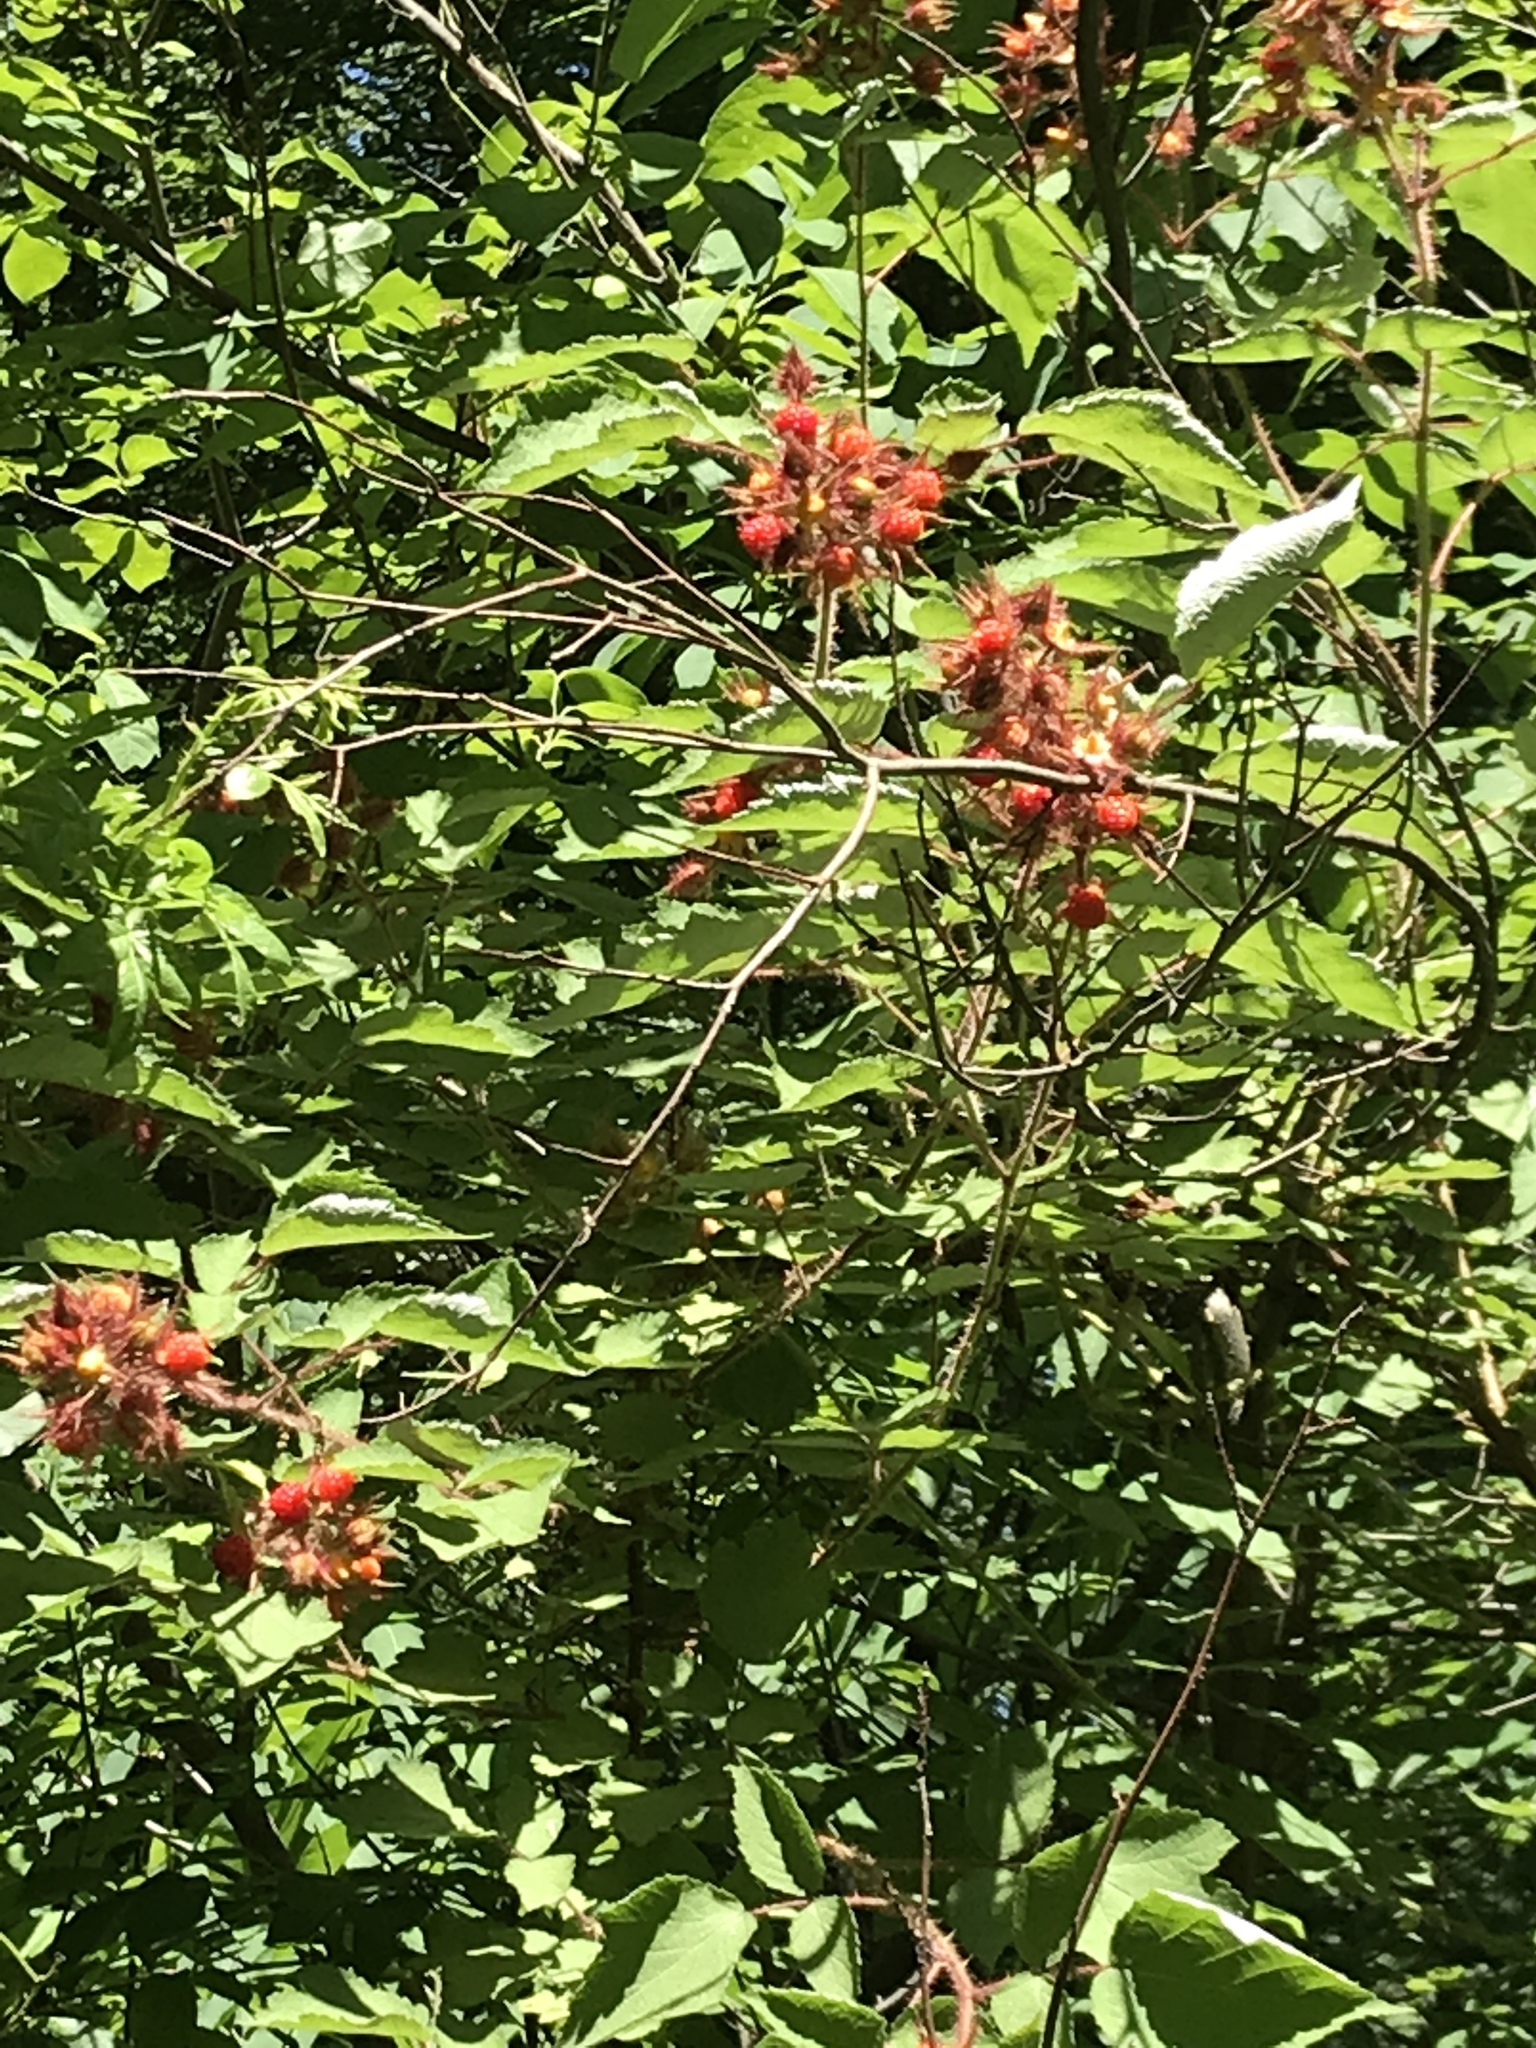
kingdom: Plantae
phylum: Tracheophyta
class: Magnoliopsida
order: Rosales
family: Rosaceae
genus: Rubus
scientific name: Rubus phoenicolasius
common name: Japanese wineberry
